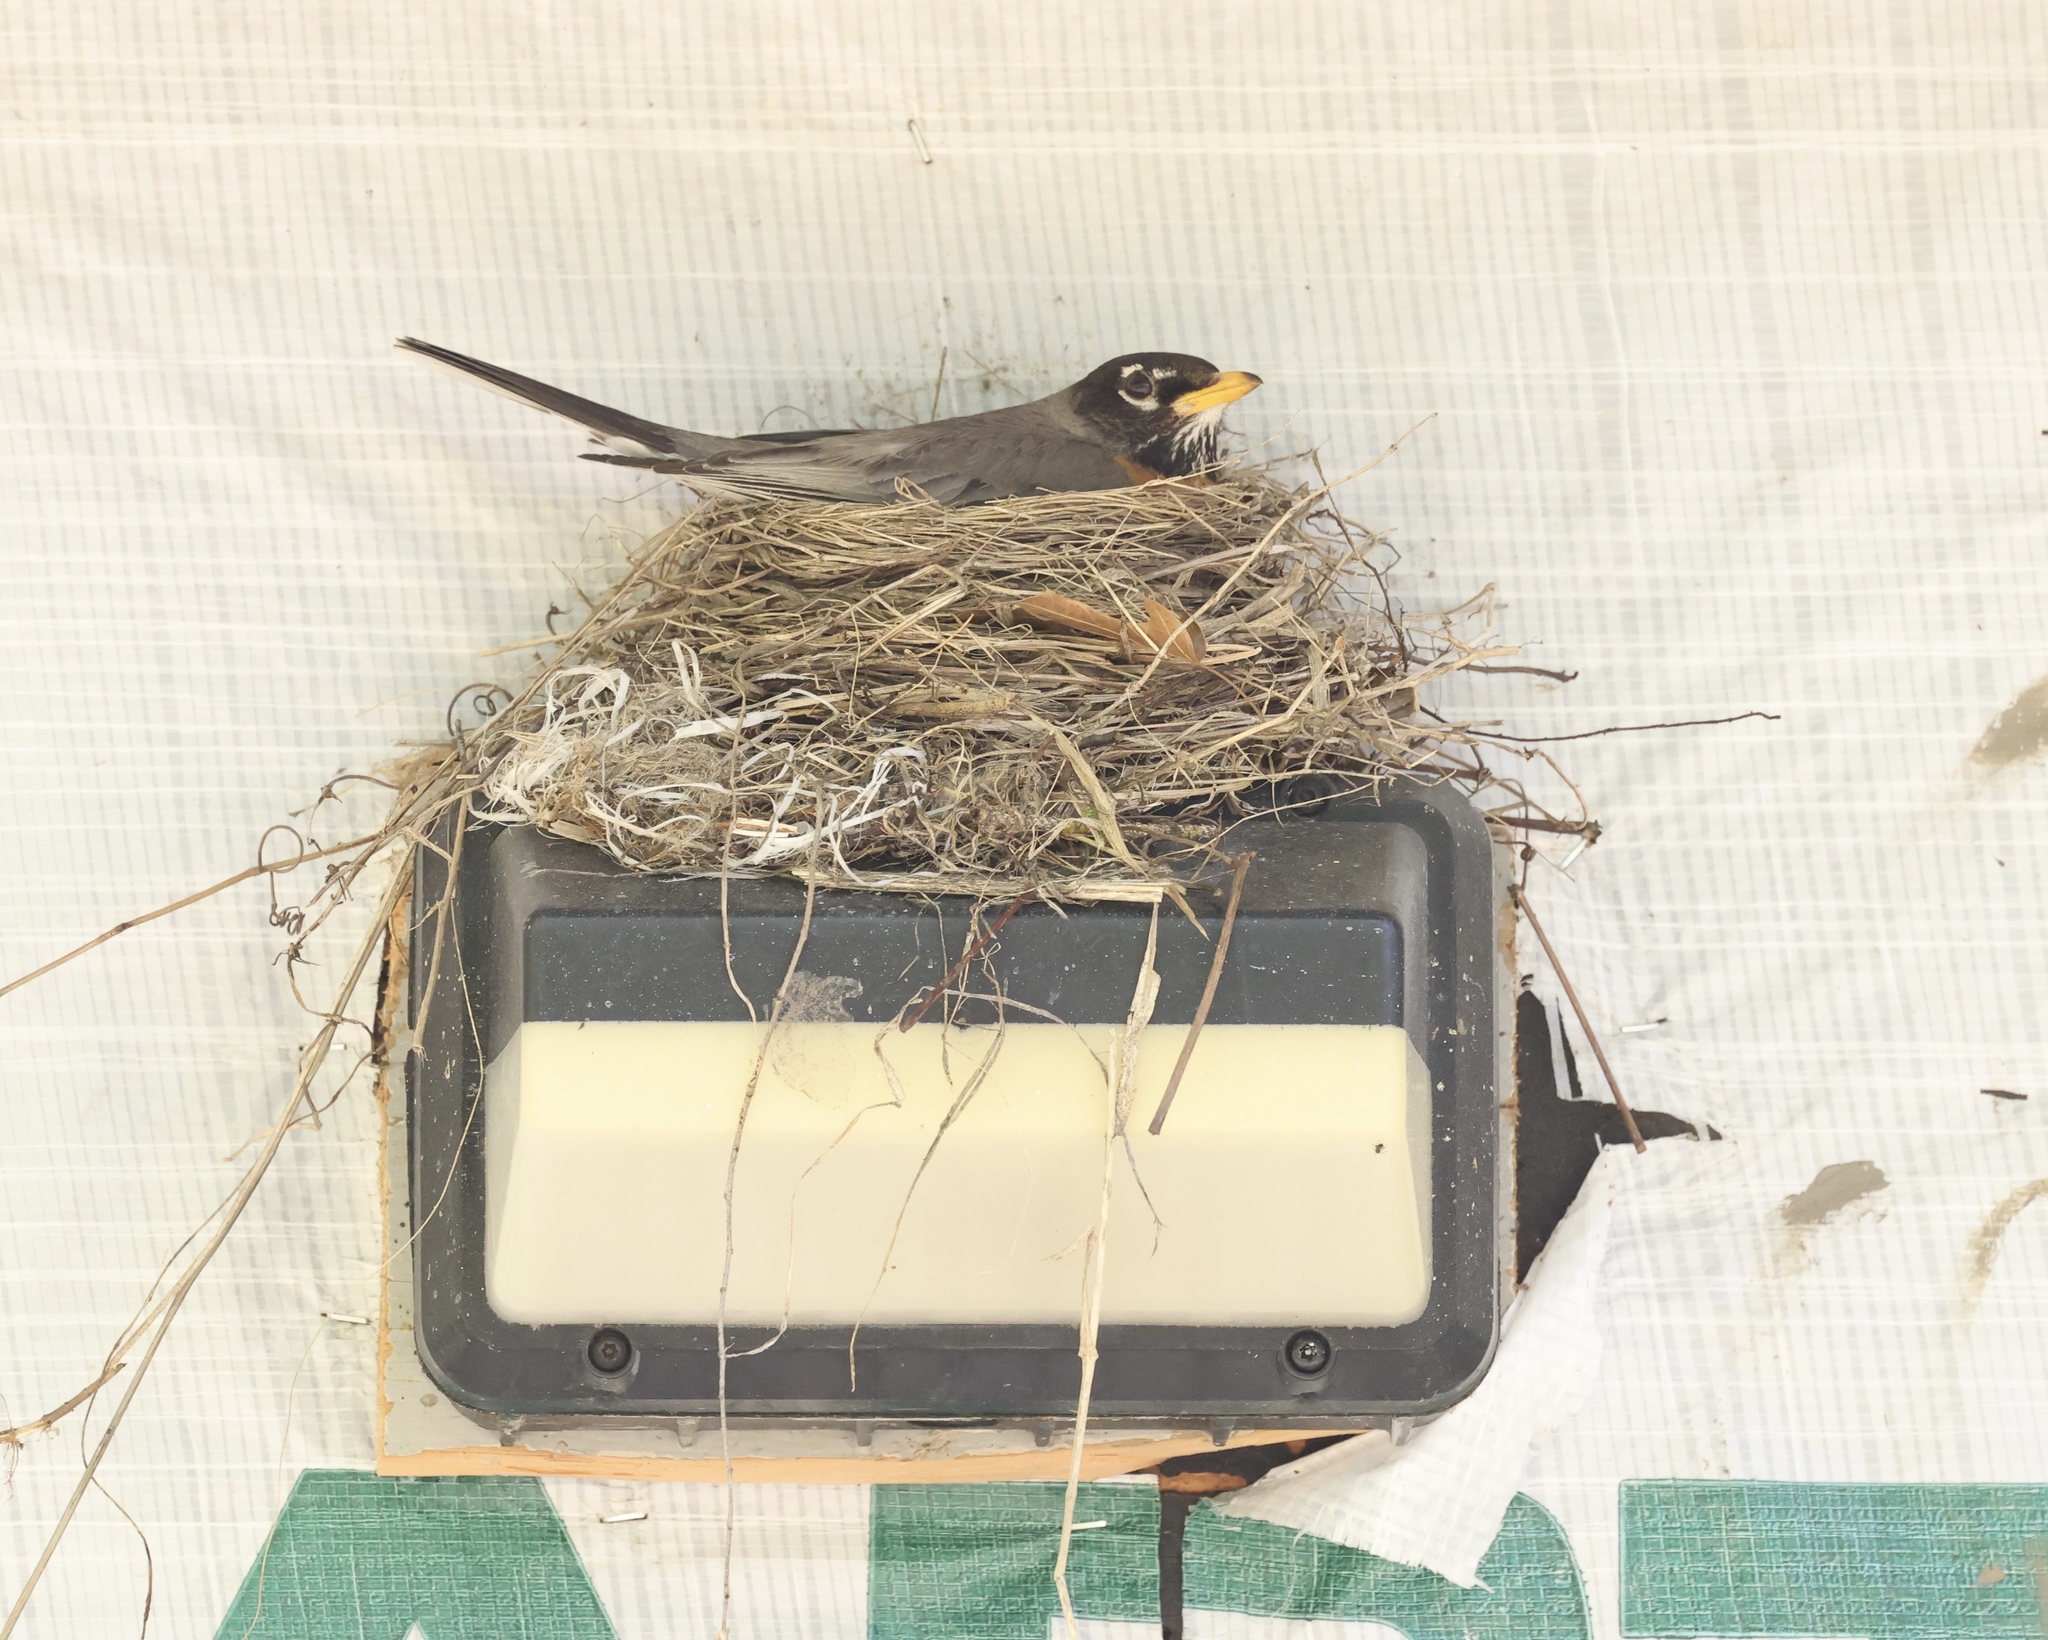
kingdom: Animalia
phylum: Chordata
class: Aves
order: Passeriformes
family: Turdidae
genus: Turdus
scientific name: Turdus migratorius
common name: American robin
